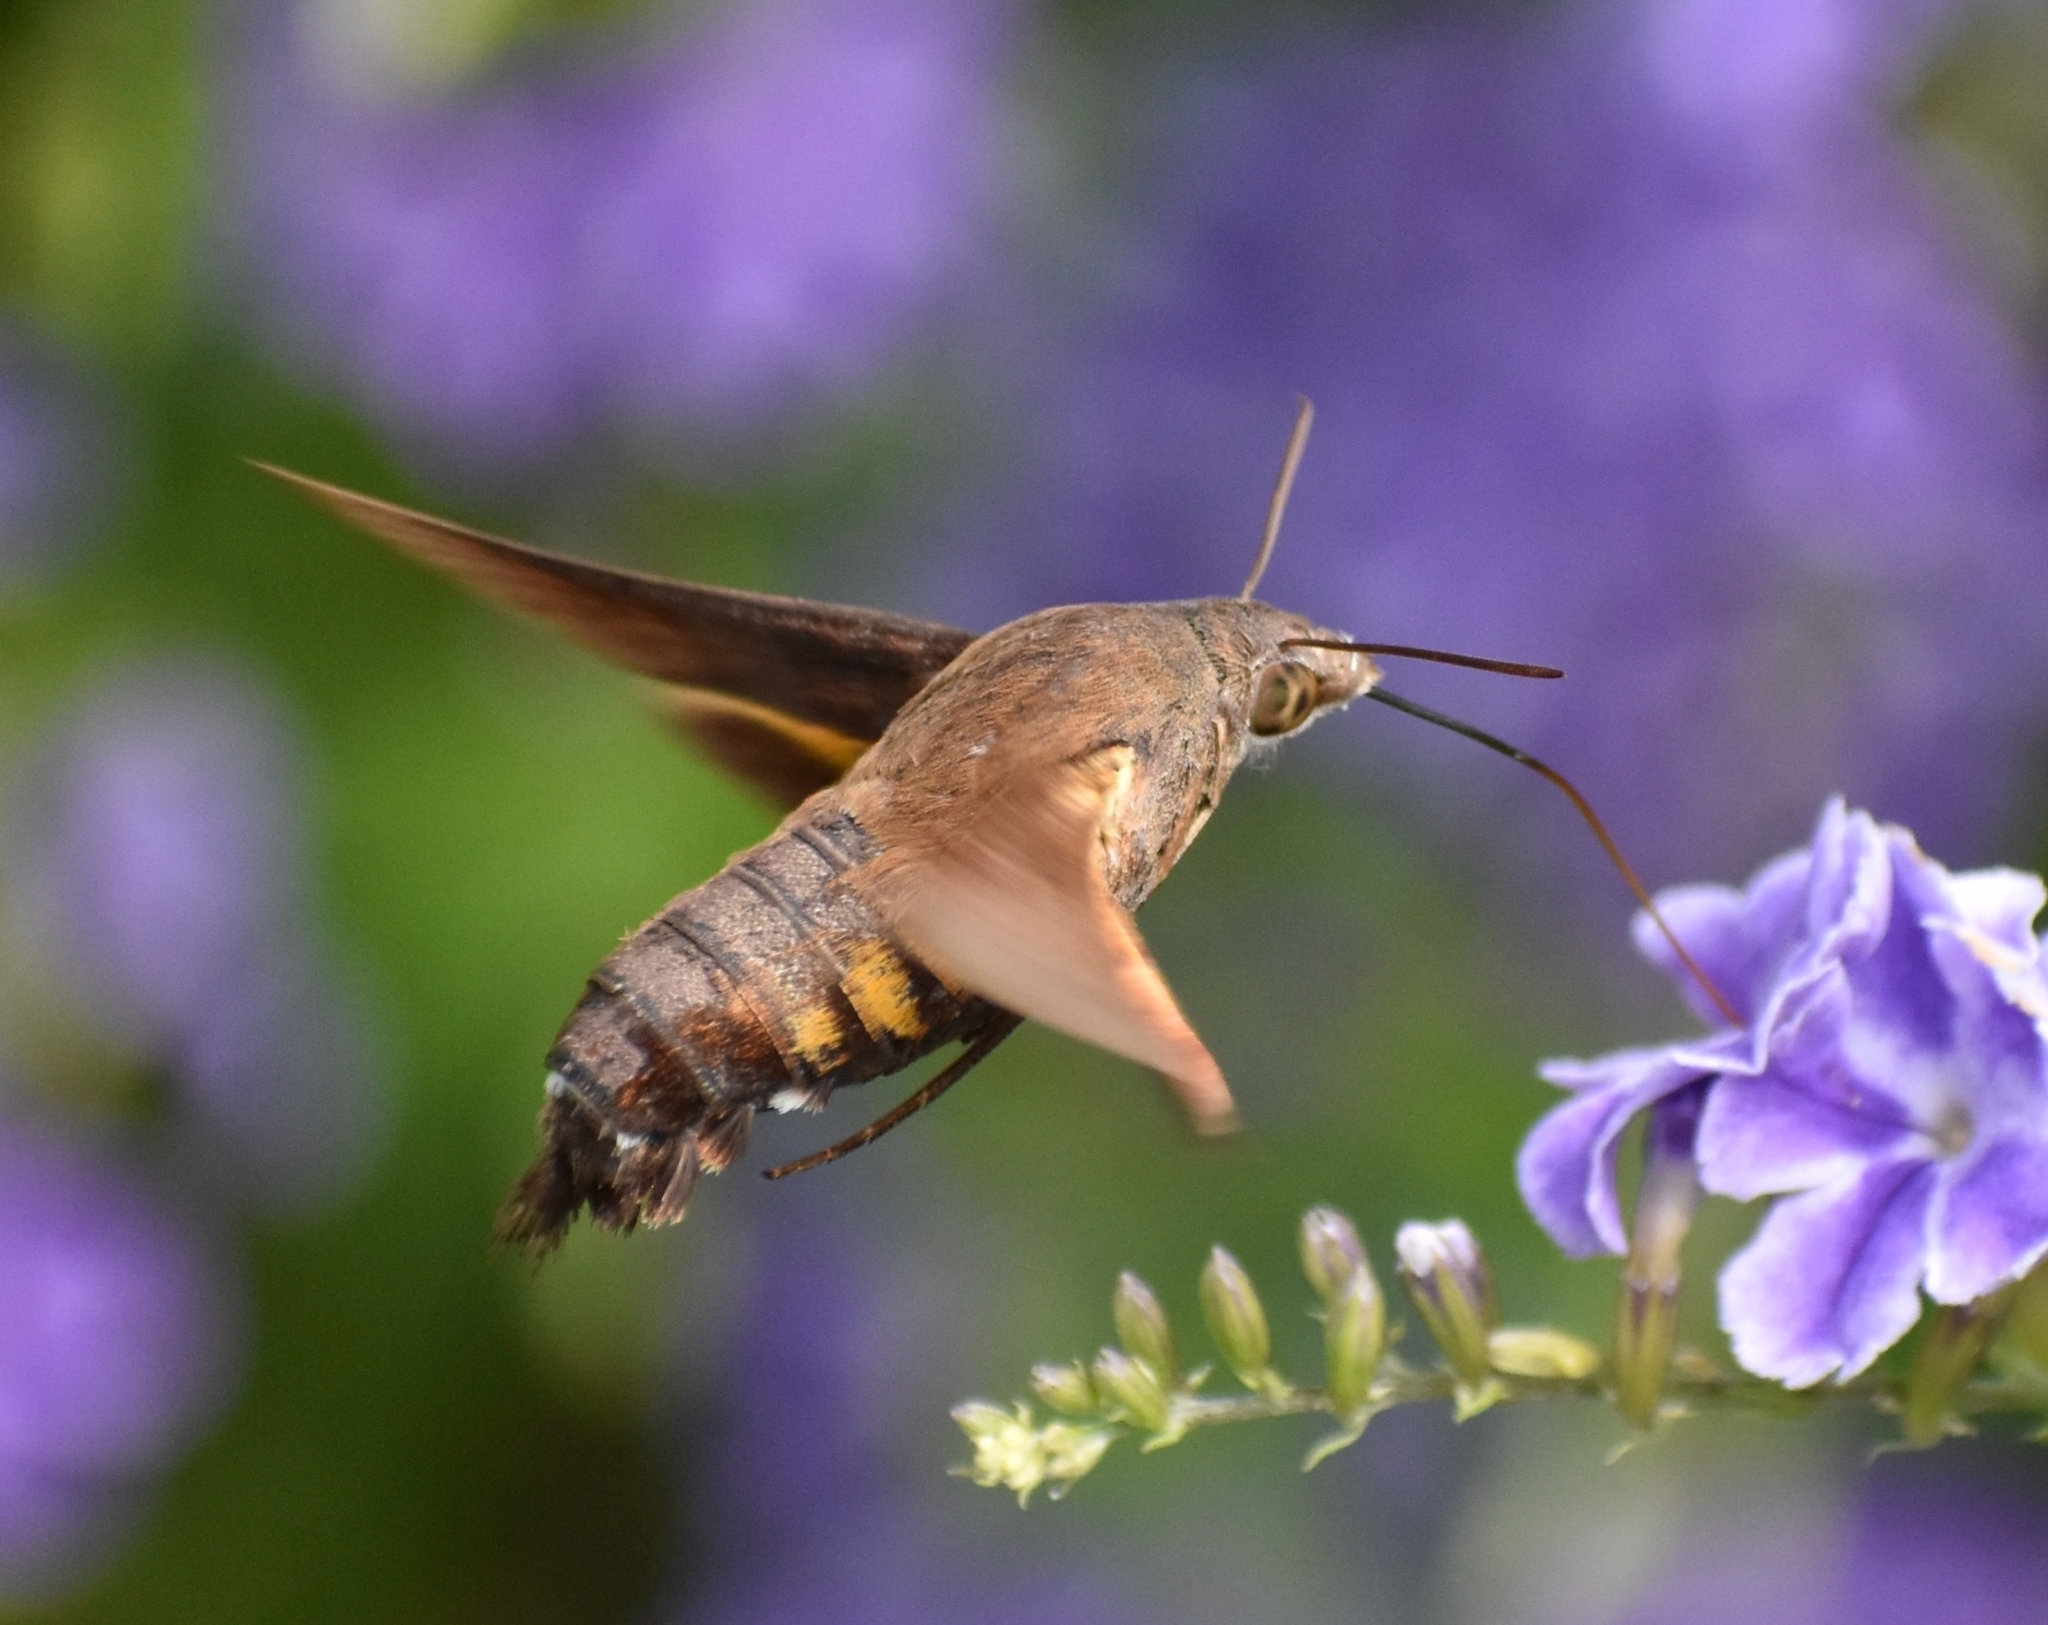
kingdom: Animalia
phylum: Arthropoda
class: Insecta
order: Lepidoptera
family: Sphingidae
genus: Macroglossum
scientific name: Macroglossum corythus
